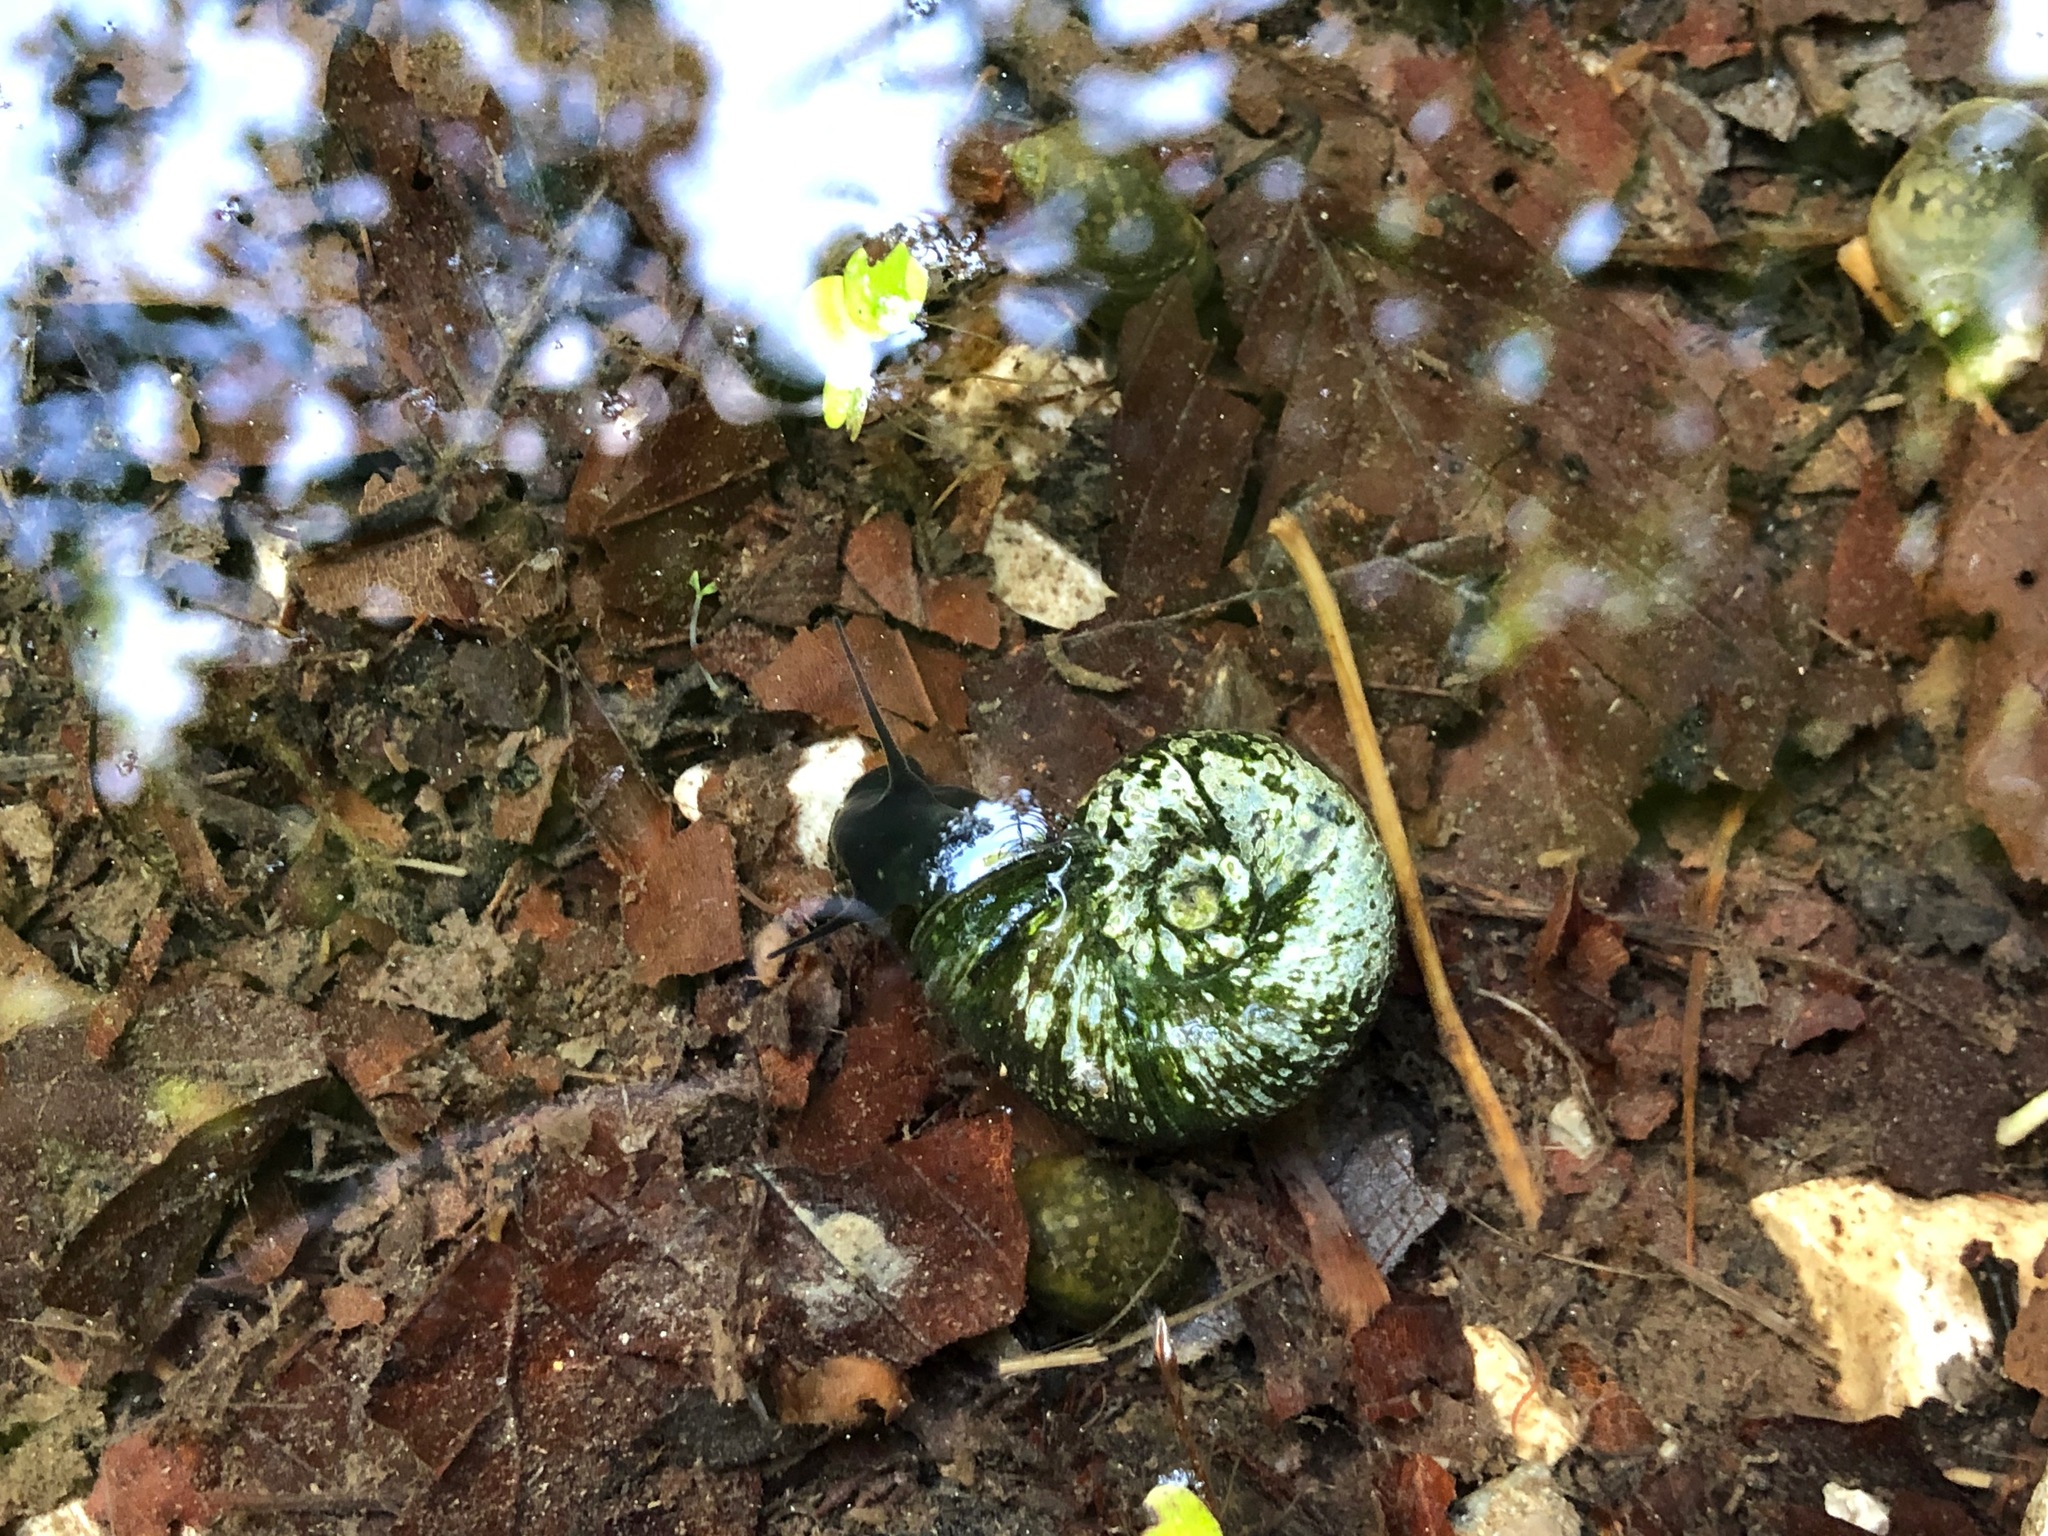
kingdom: Animalia
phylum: Mollusca
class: Gastropoda
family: Planorbidae
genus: Planorbarius
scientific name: Planorbarius corneus
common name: Great ramshorn
